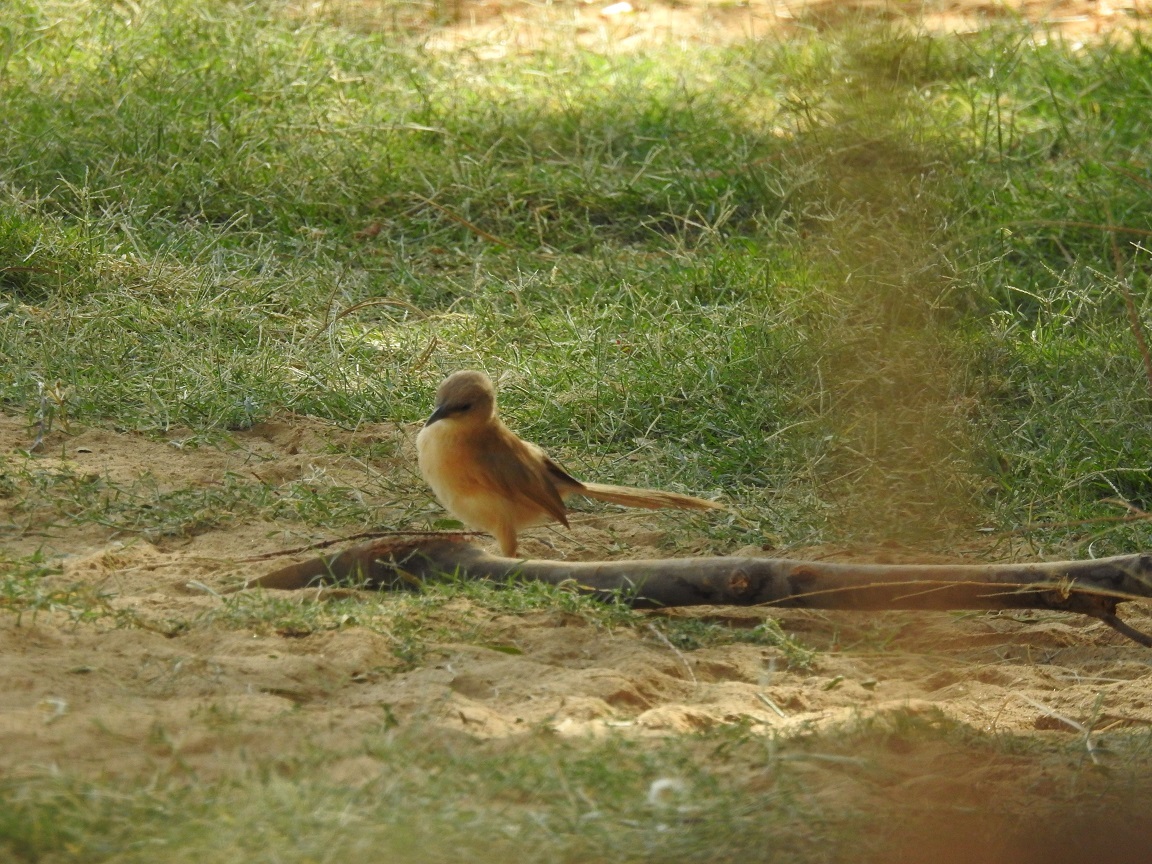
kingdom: Animalia
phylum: Chordata
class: Aves
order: Passeriformes
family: Leiothrichidae
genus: Turdoides
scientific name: Turdoides fulva
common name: Fulvous babbler
